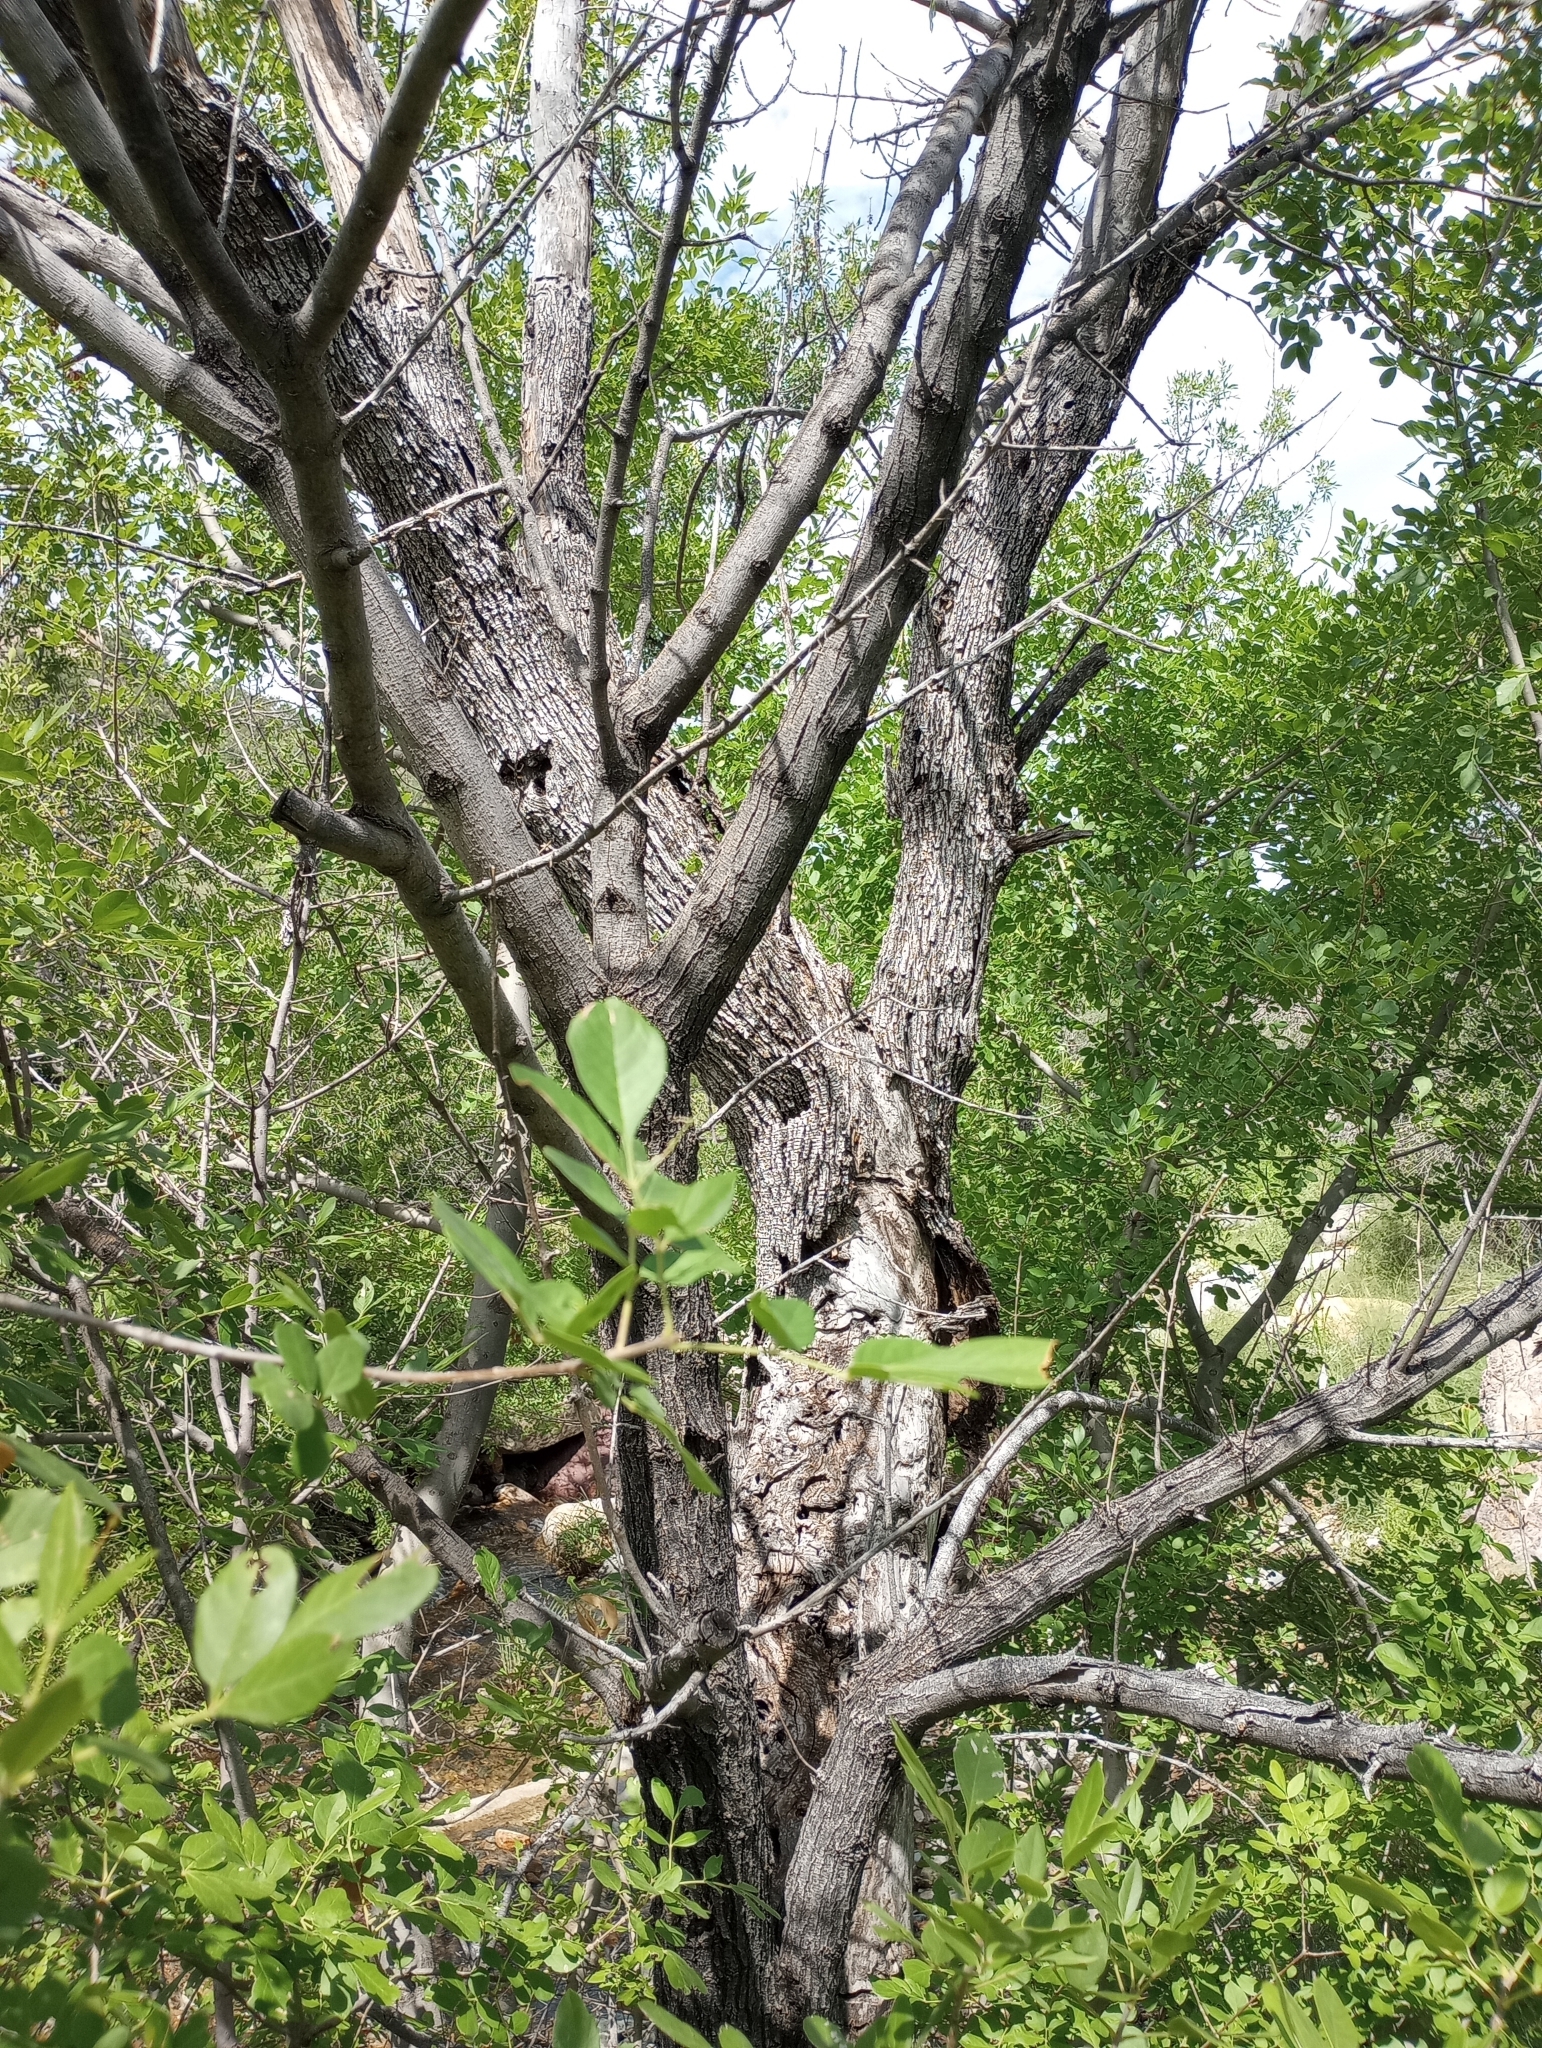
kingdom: Plantae
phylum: Tracheophyta
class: Magnoliopsida
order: Lamiales
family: Oleaceae
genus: Fraxinus
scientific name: Fraxinus velutina
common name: Arizon ash
